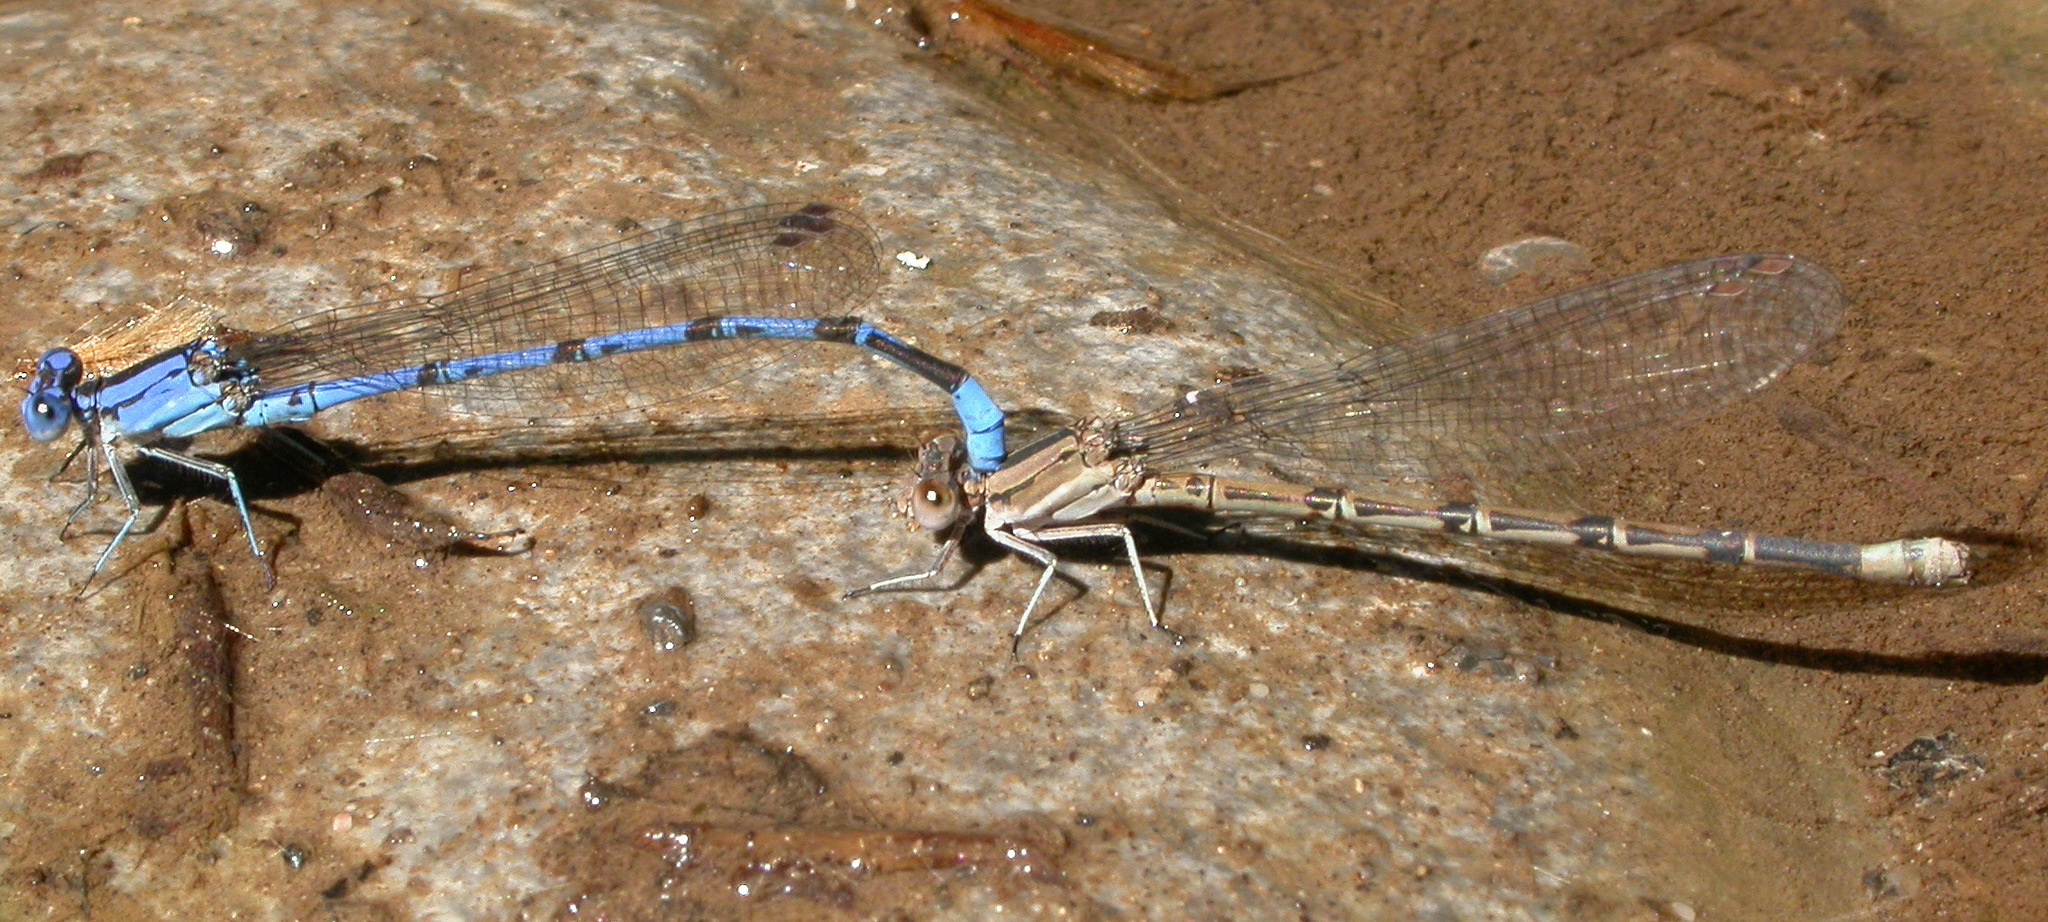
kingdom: Animalia
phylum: Arthropoda
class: Insecta
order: Odonata
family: Coenagrionidae
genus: Argia
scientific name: Argia funebris
